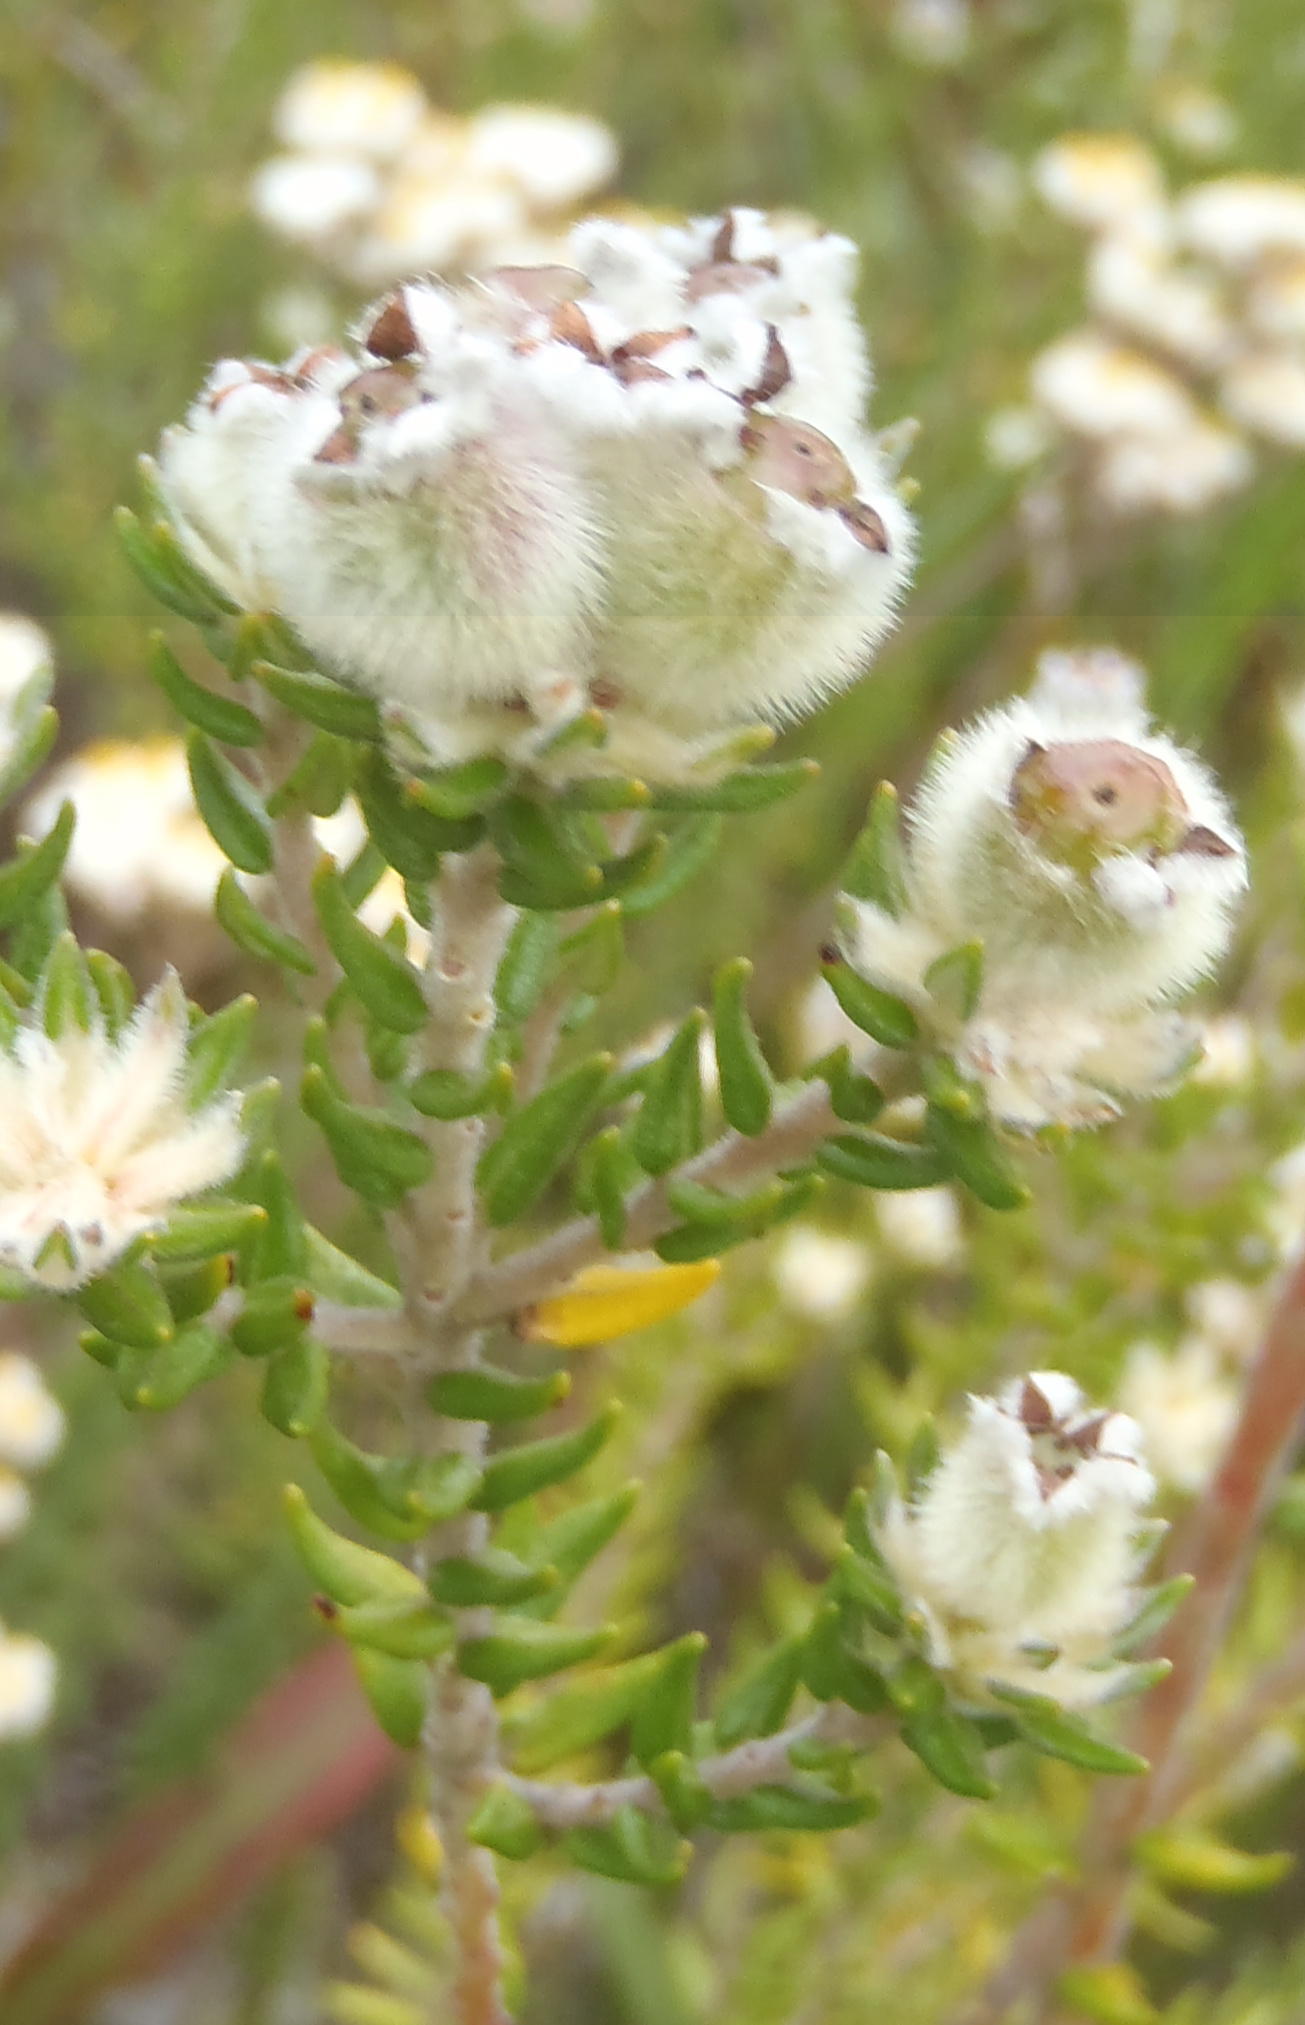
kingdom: Plantae
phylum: Tracheophyta
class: Magnoliopsida
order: Rosales
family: Rhamnaceae
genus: Phylica
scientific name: Phylica purpurea
